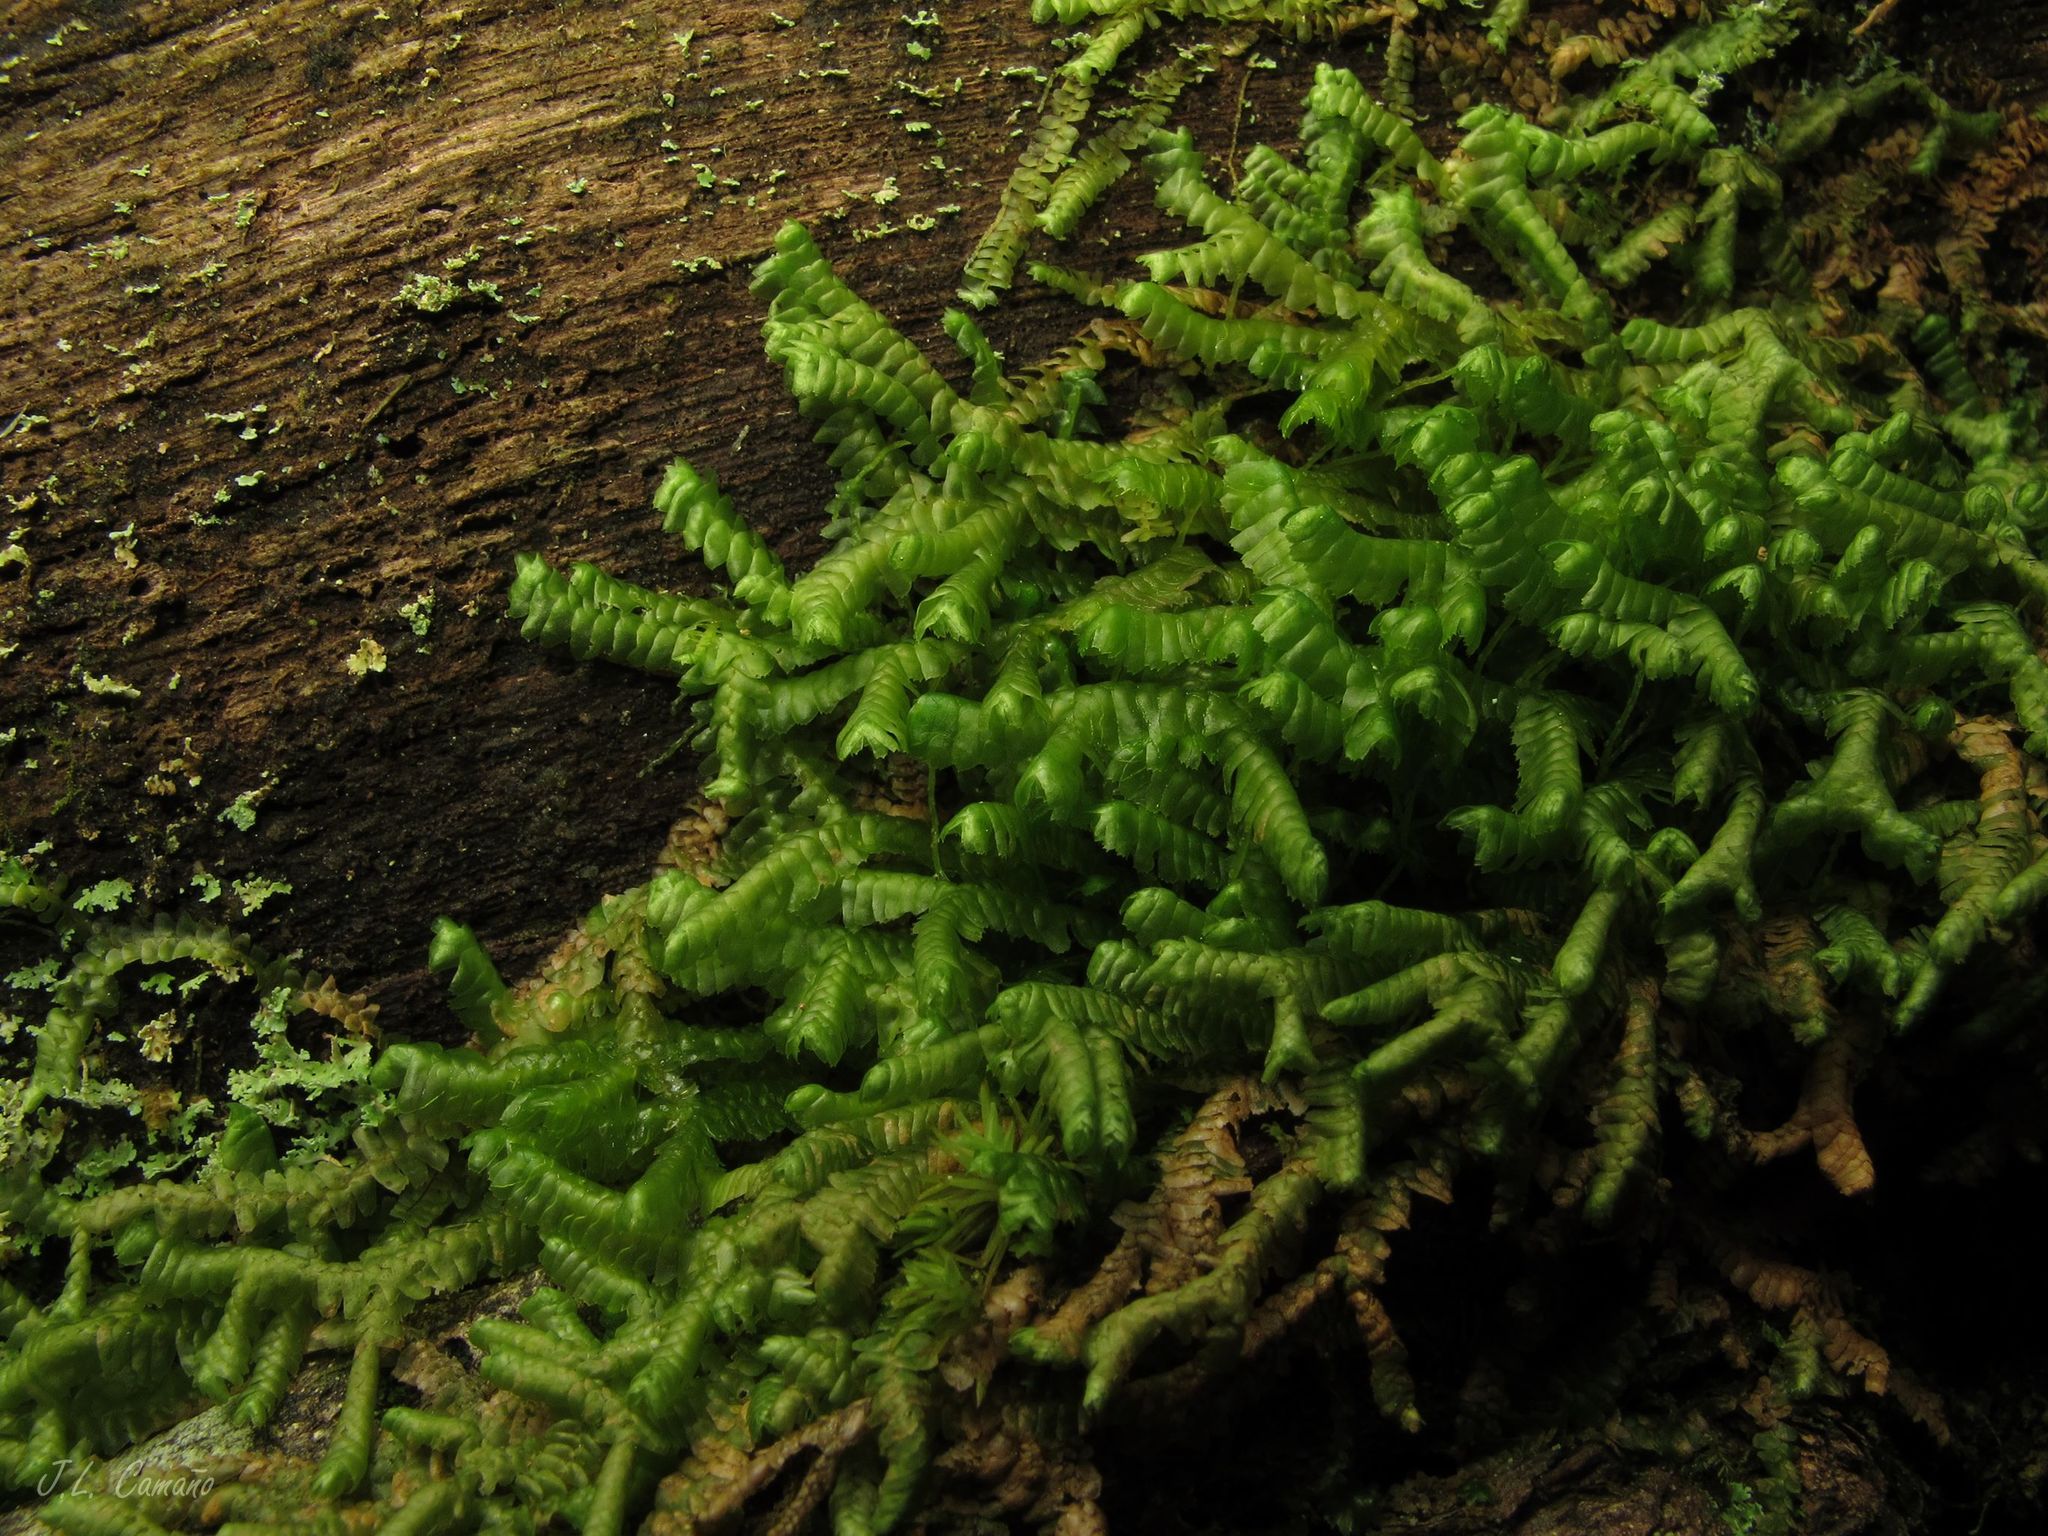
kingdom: Plantae
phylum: Marchantiophyta
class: Jungermanniopsida
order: Jungermanniales
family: Lepidoziaceae
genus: Bazzania
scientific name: Bazzania trilobata
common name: Three-lobed whipwort
